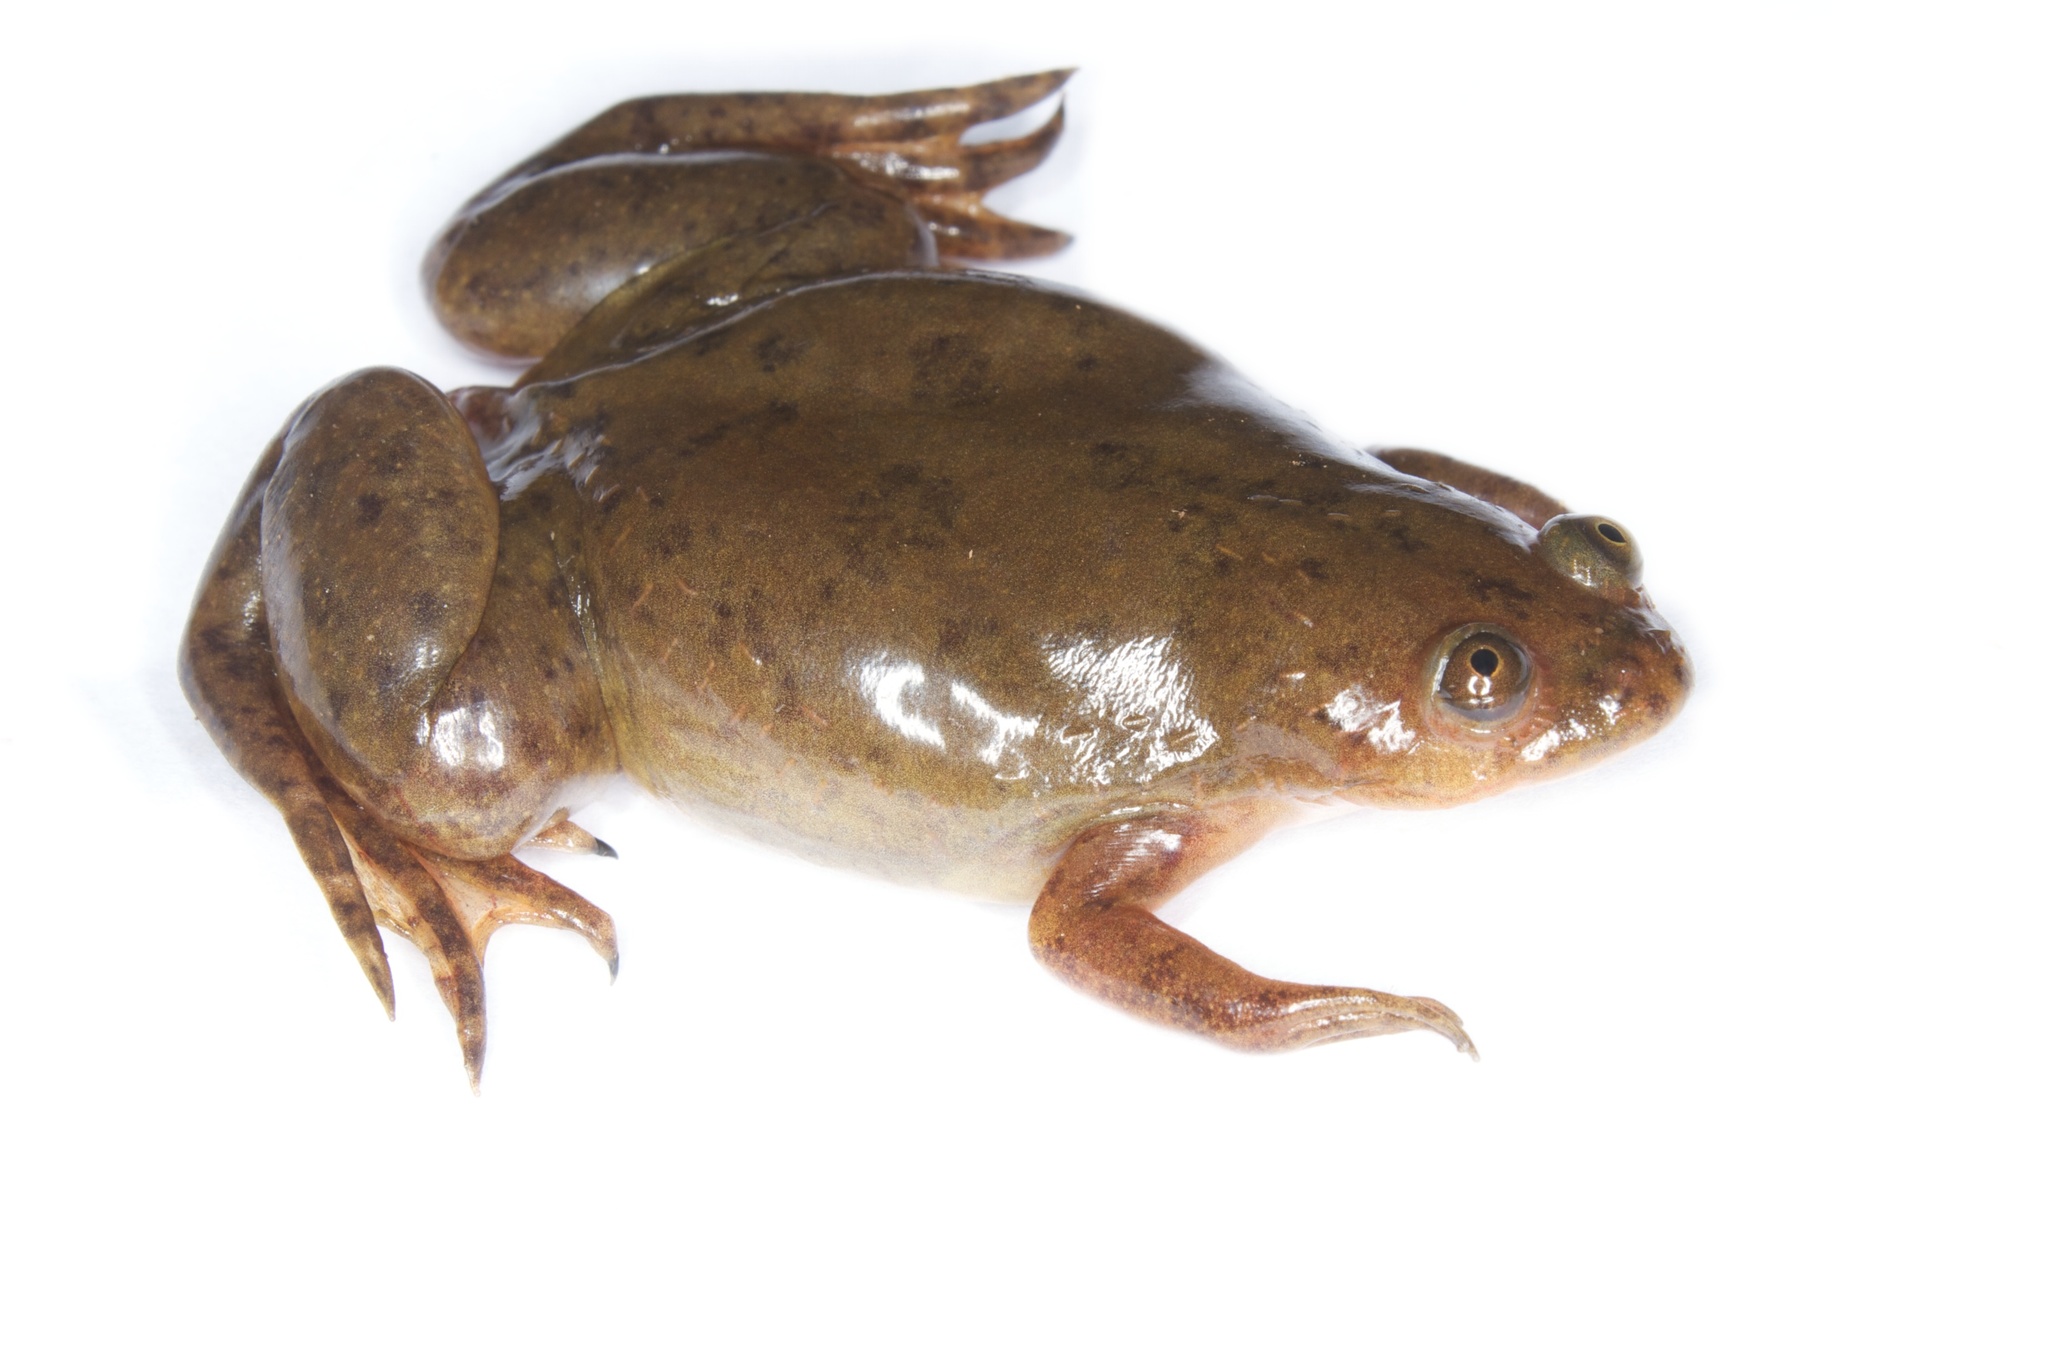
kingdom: Animalia
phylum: Chordata
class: Amphibia
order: Anura
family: Pipidae
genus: Xenopus
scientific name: Xenopus laevis
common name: African clawed frog
